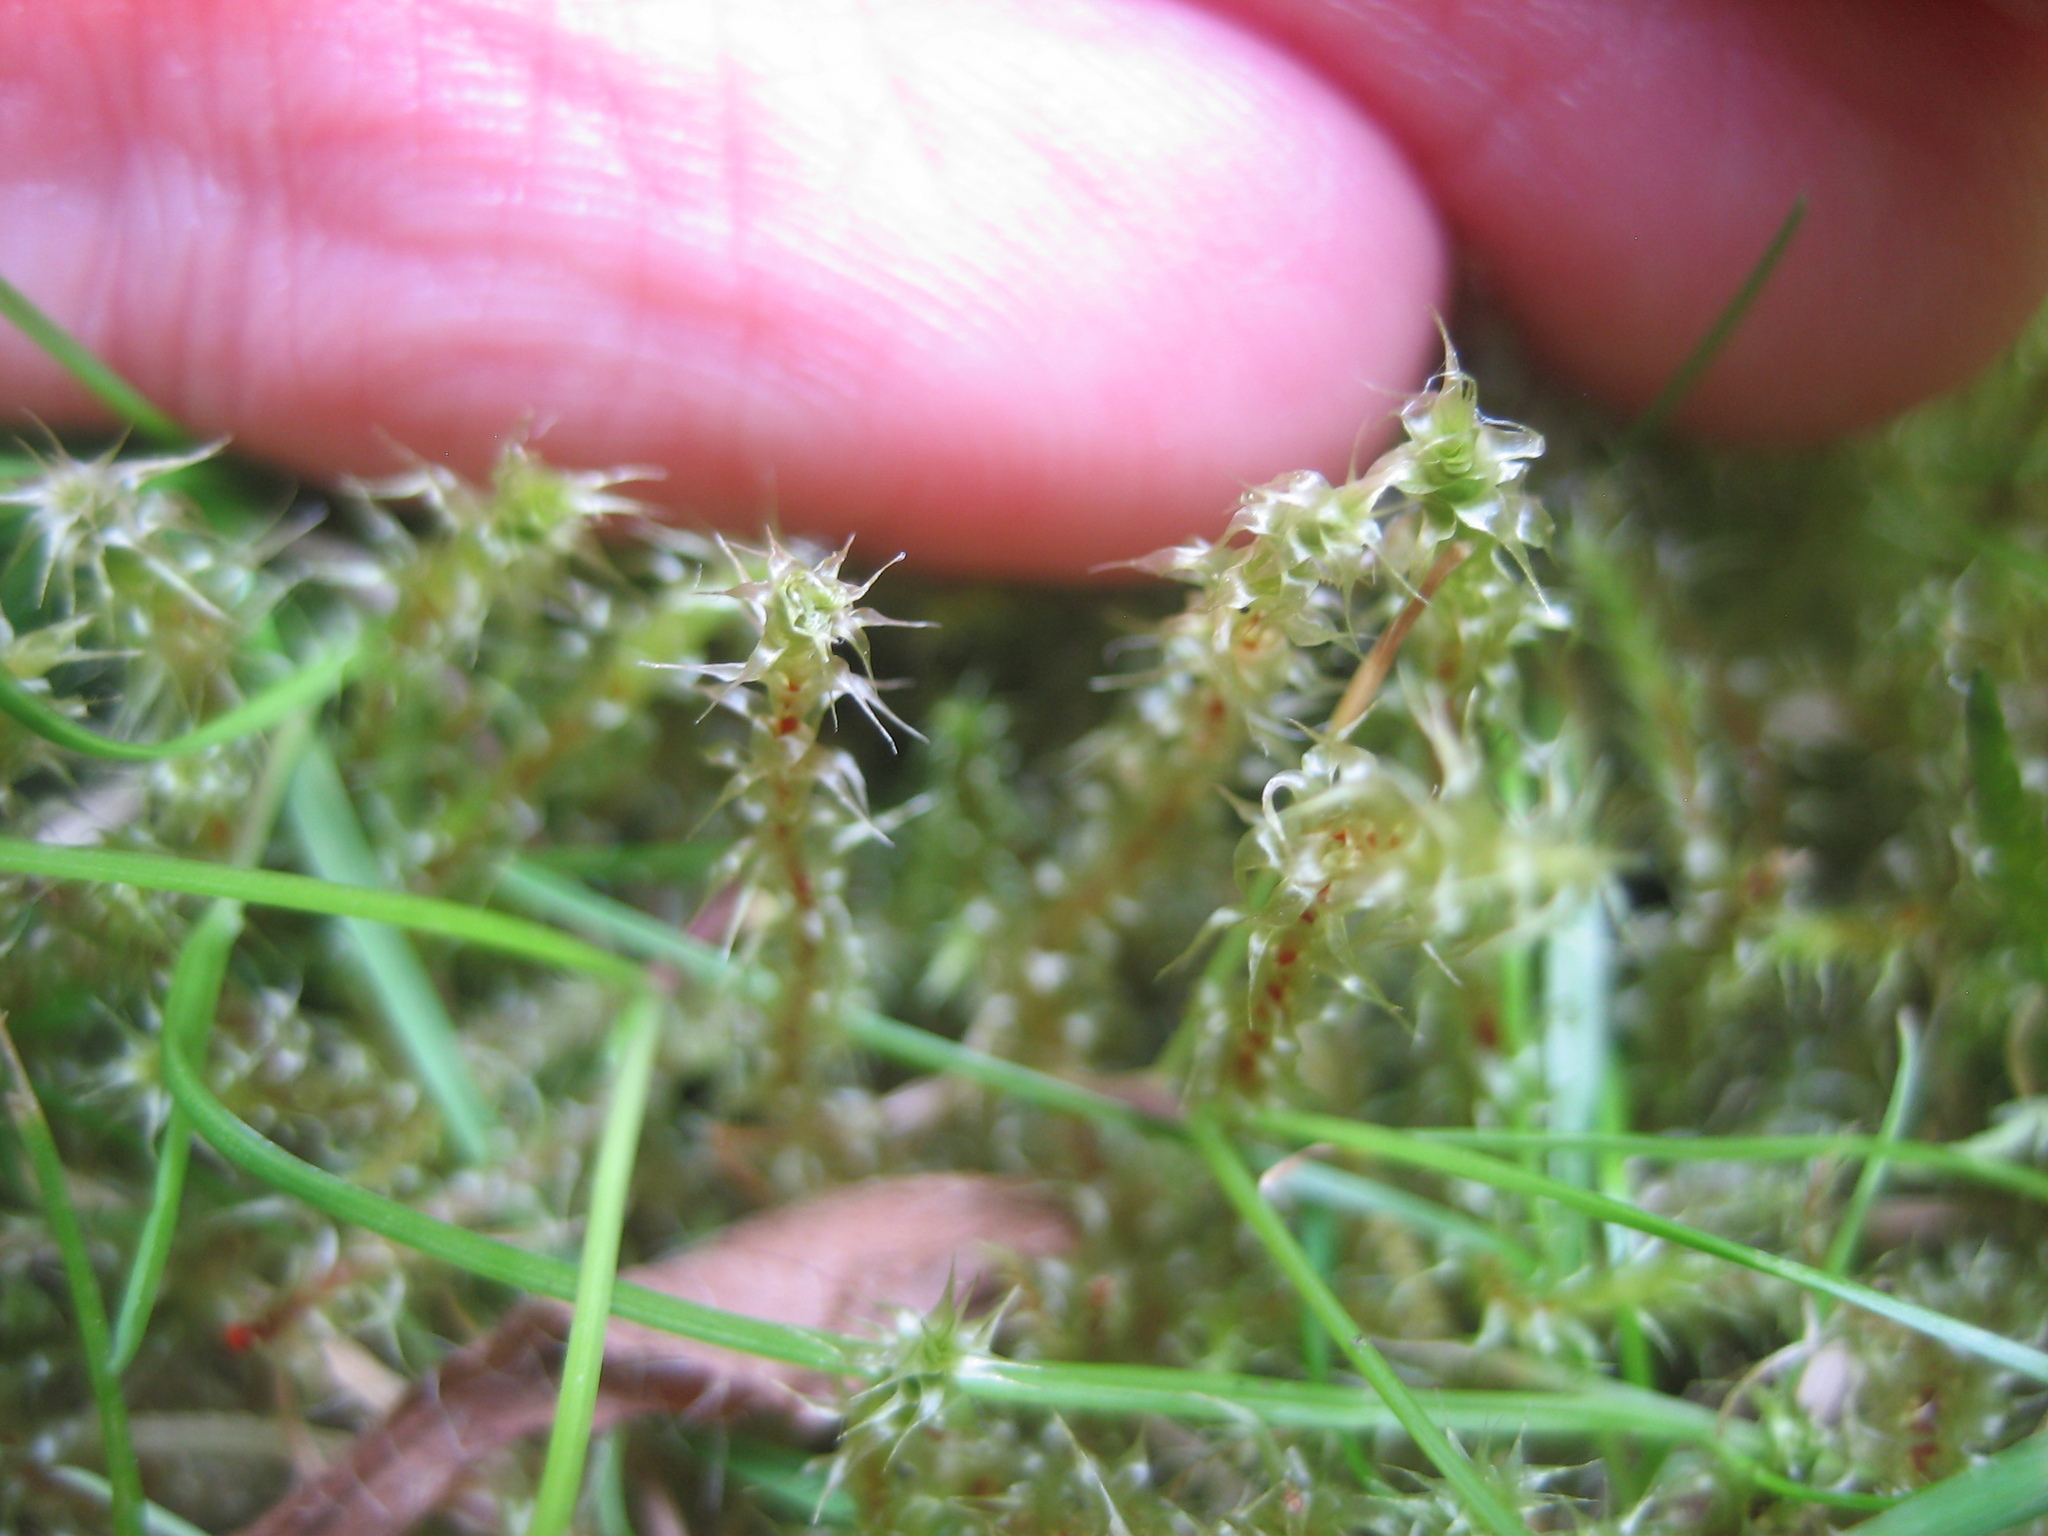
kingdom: Plantae
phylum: Bryophyta
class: Bryopsida
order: Hypnales
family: Hylocomiaceae
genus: Rhytidiadelphus
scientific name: Rhytidiadelphus squarrosus
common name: Springy turf-moss
